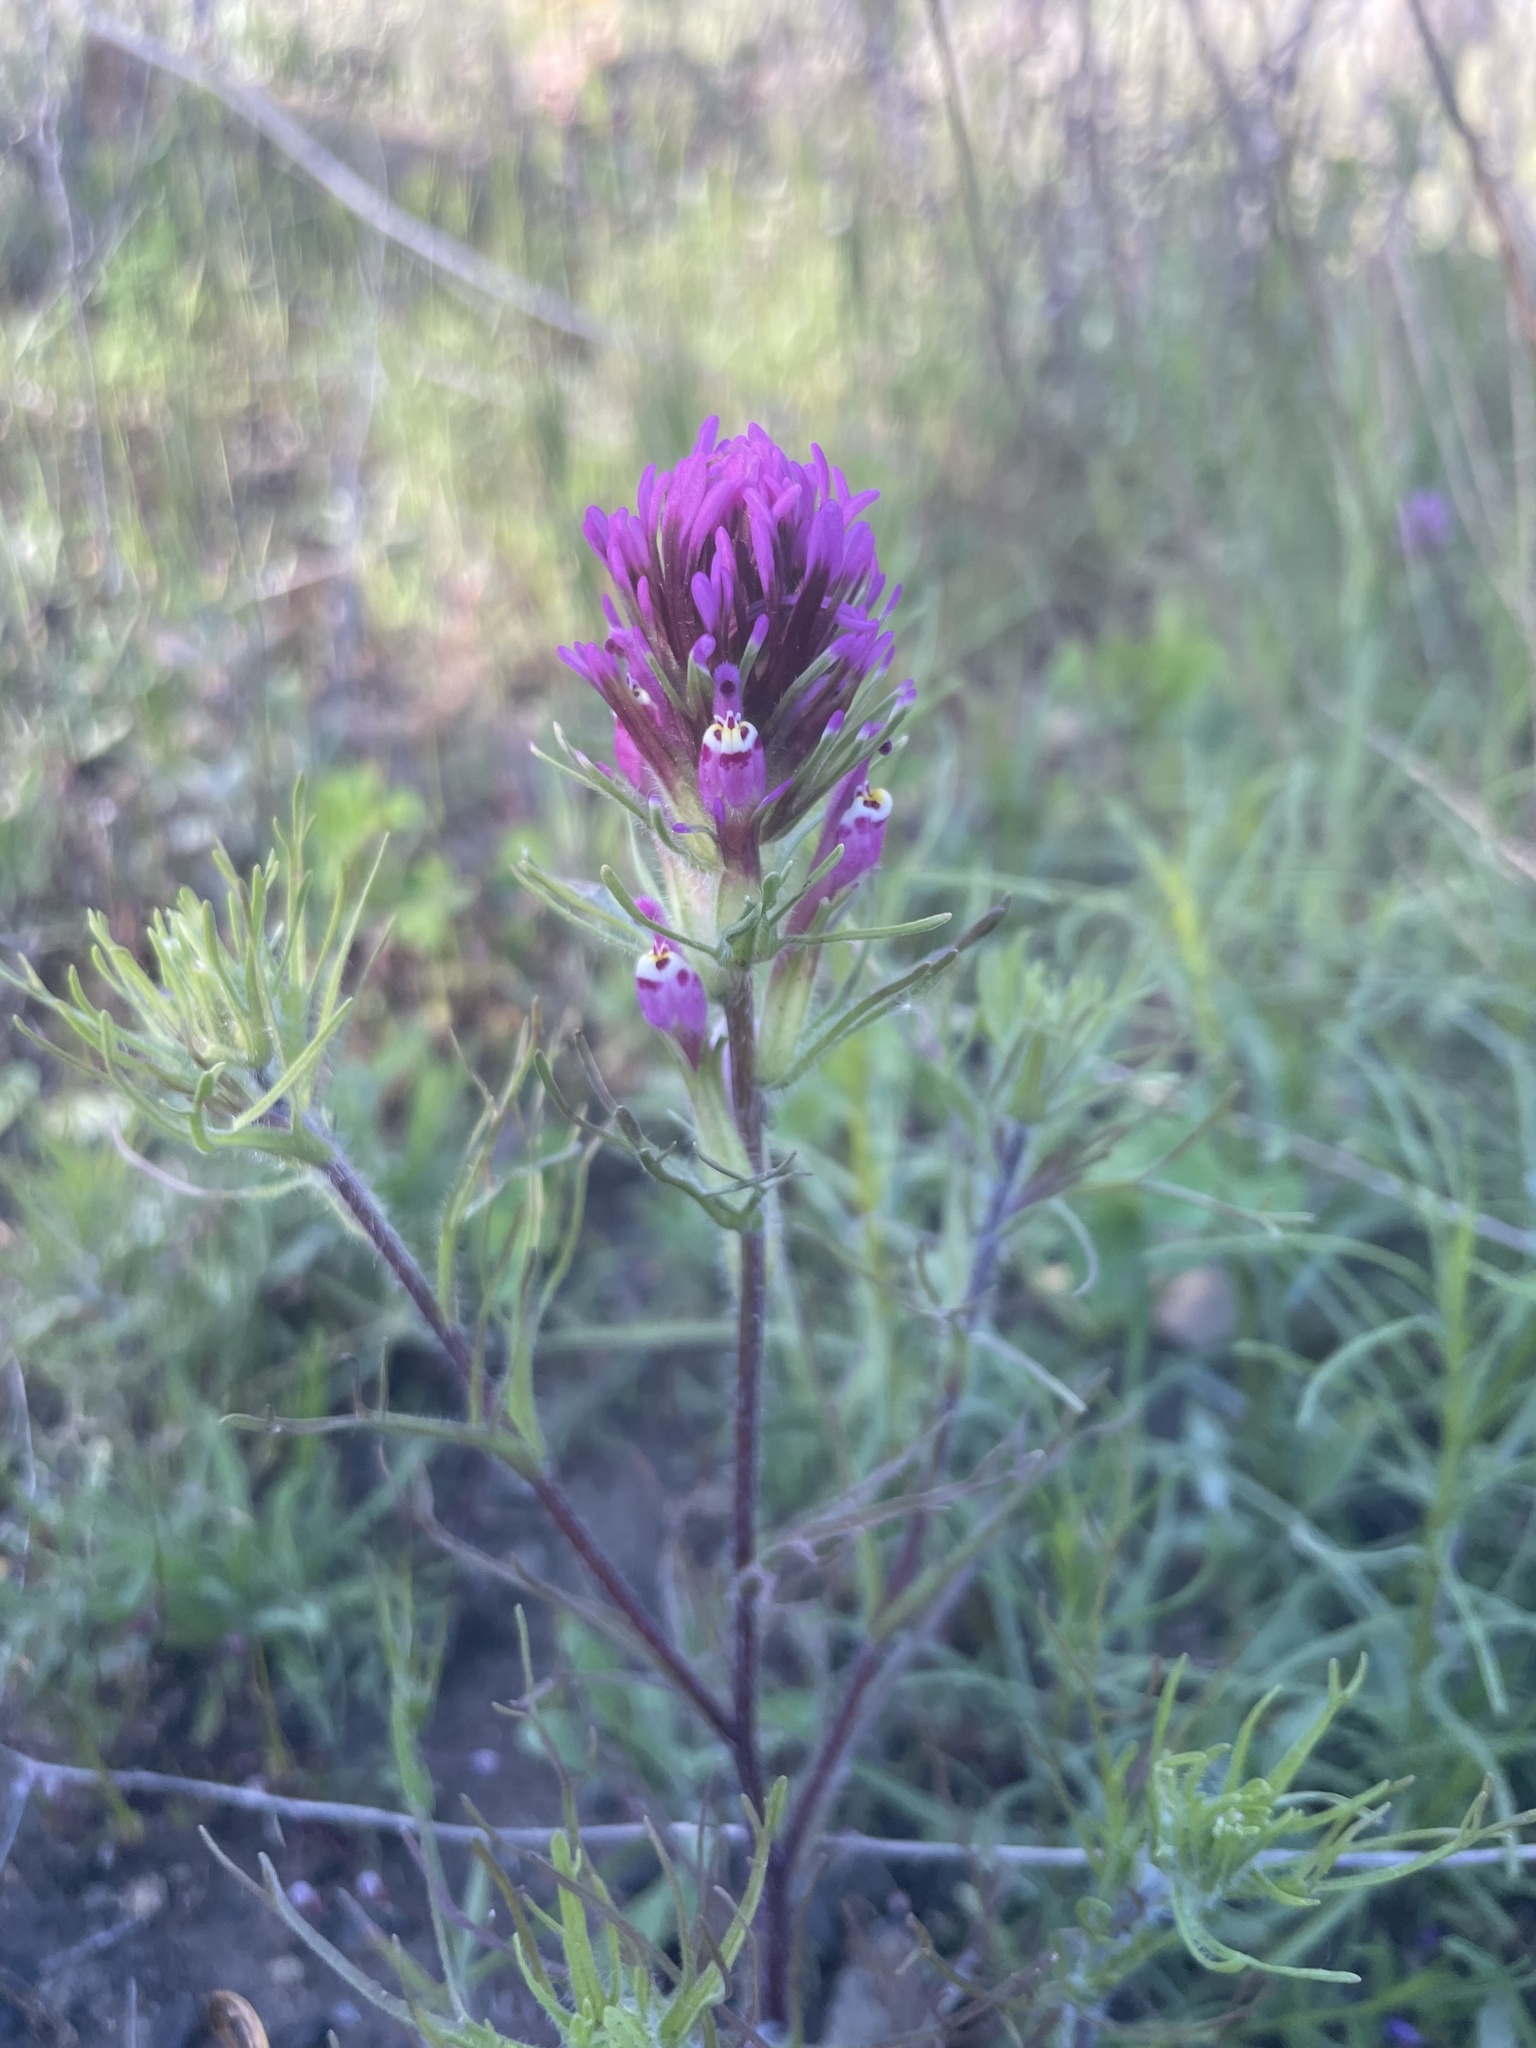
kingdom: Plantae
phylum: Tracheophyta
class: Magnoliopsida
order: Lamiales
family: Orobanchaceae
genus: Castilleja
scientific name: Castilleja exserta
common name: Purple owl-clover
